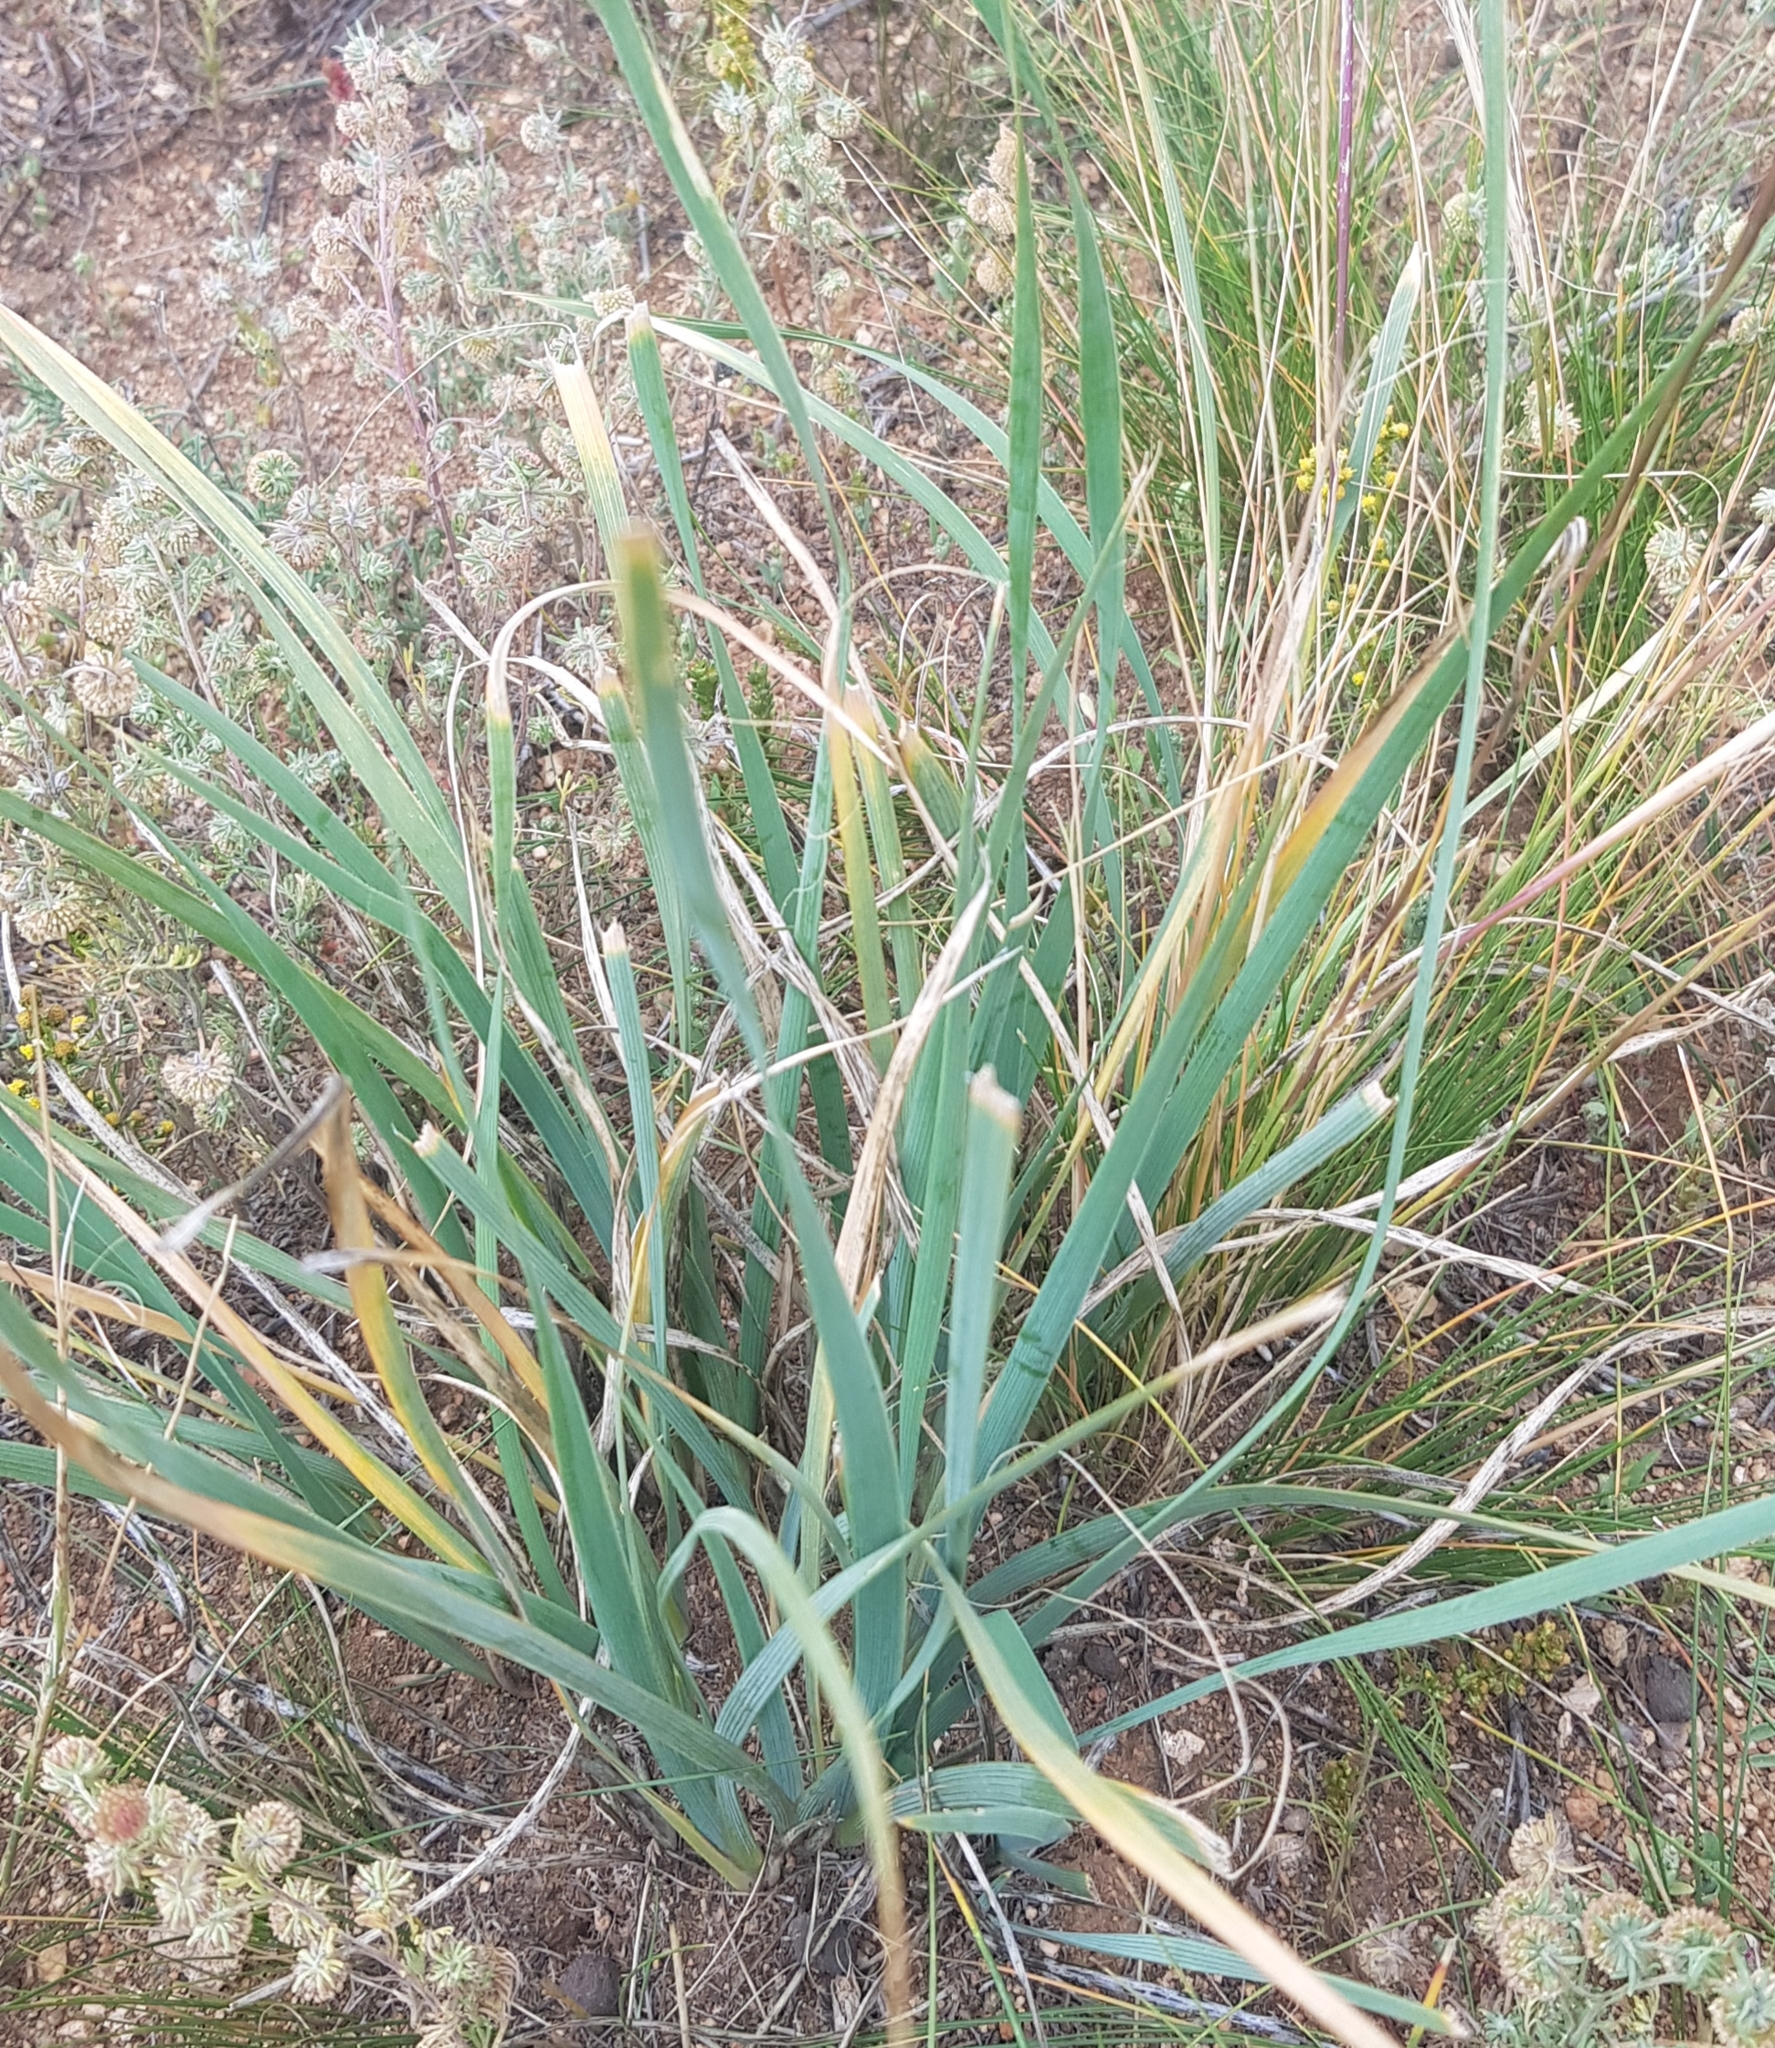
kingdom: Plantae
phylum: Tracheophyta
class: Liliopsida
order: Asparagales
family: Iridaceae
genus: Iris
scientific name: Iris bungei
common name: Large-bract iris
